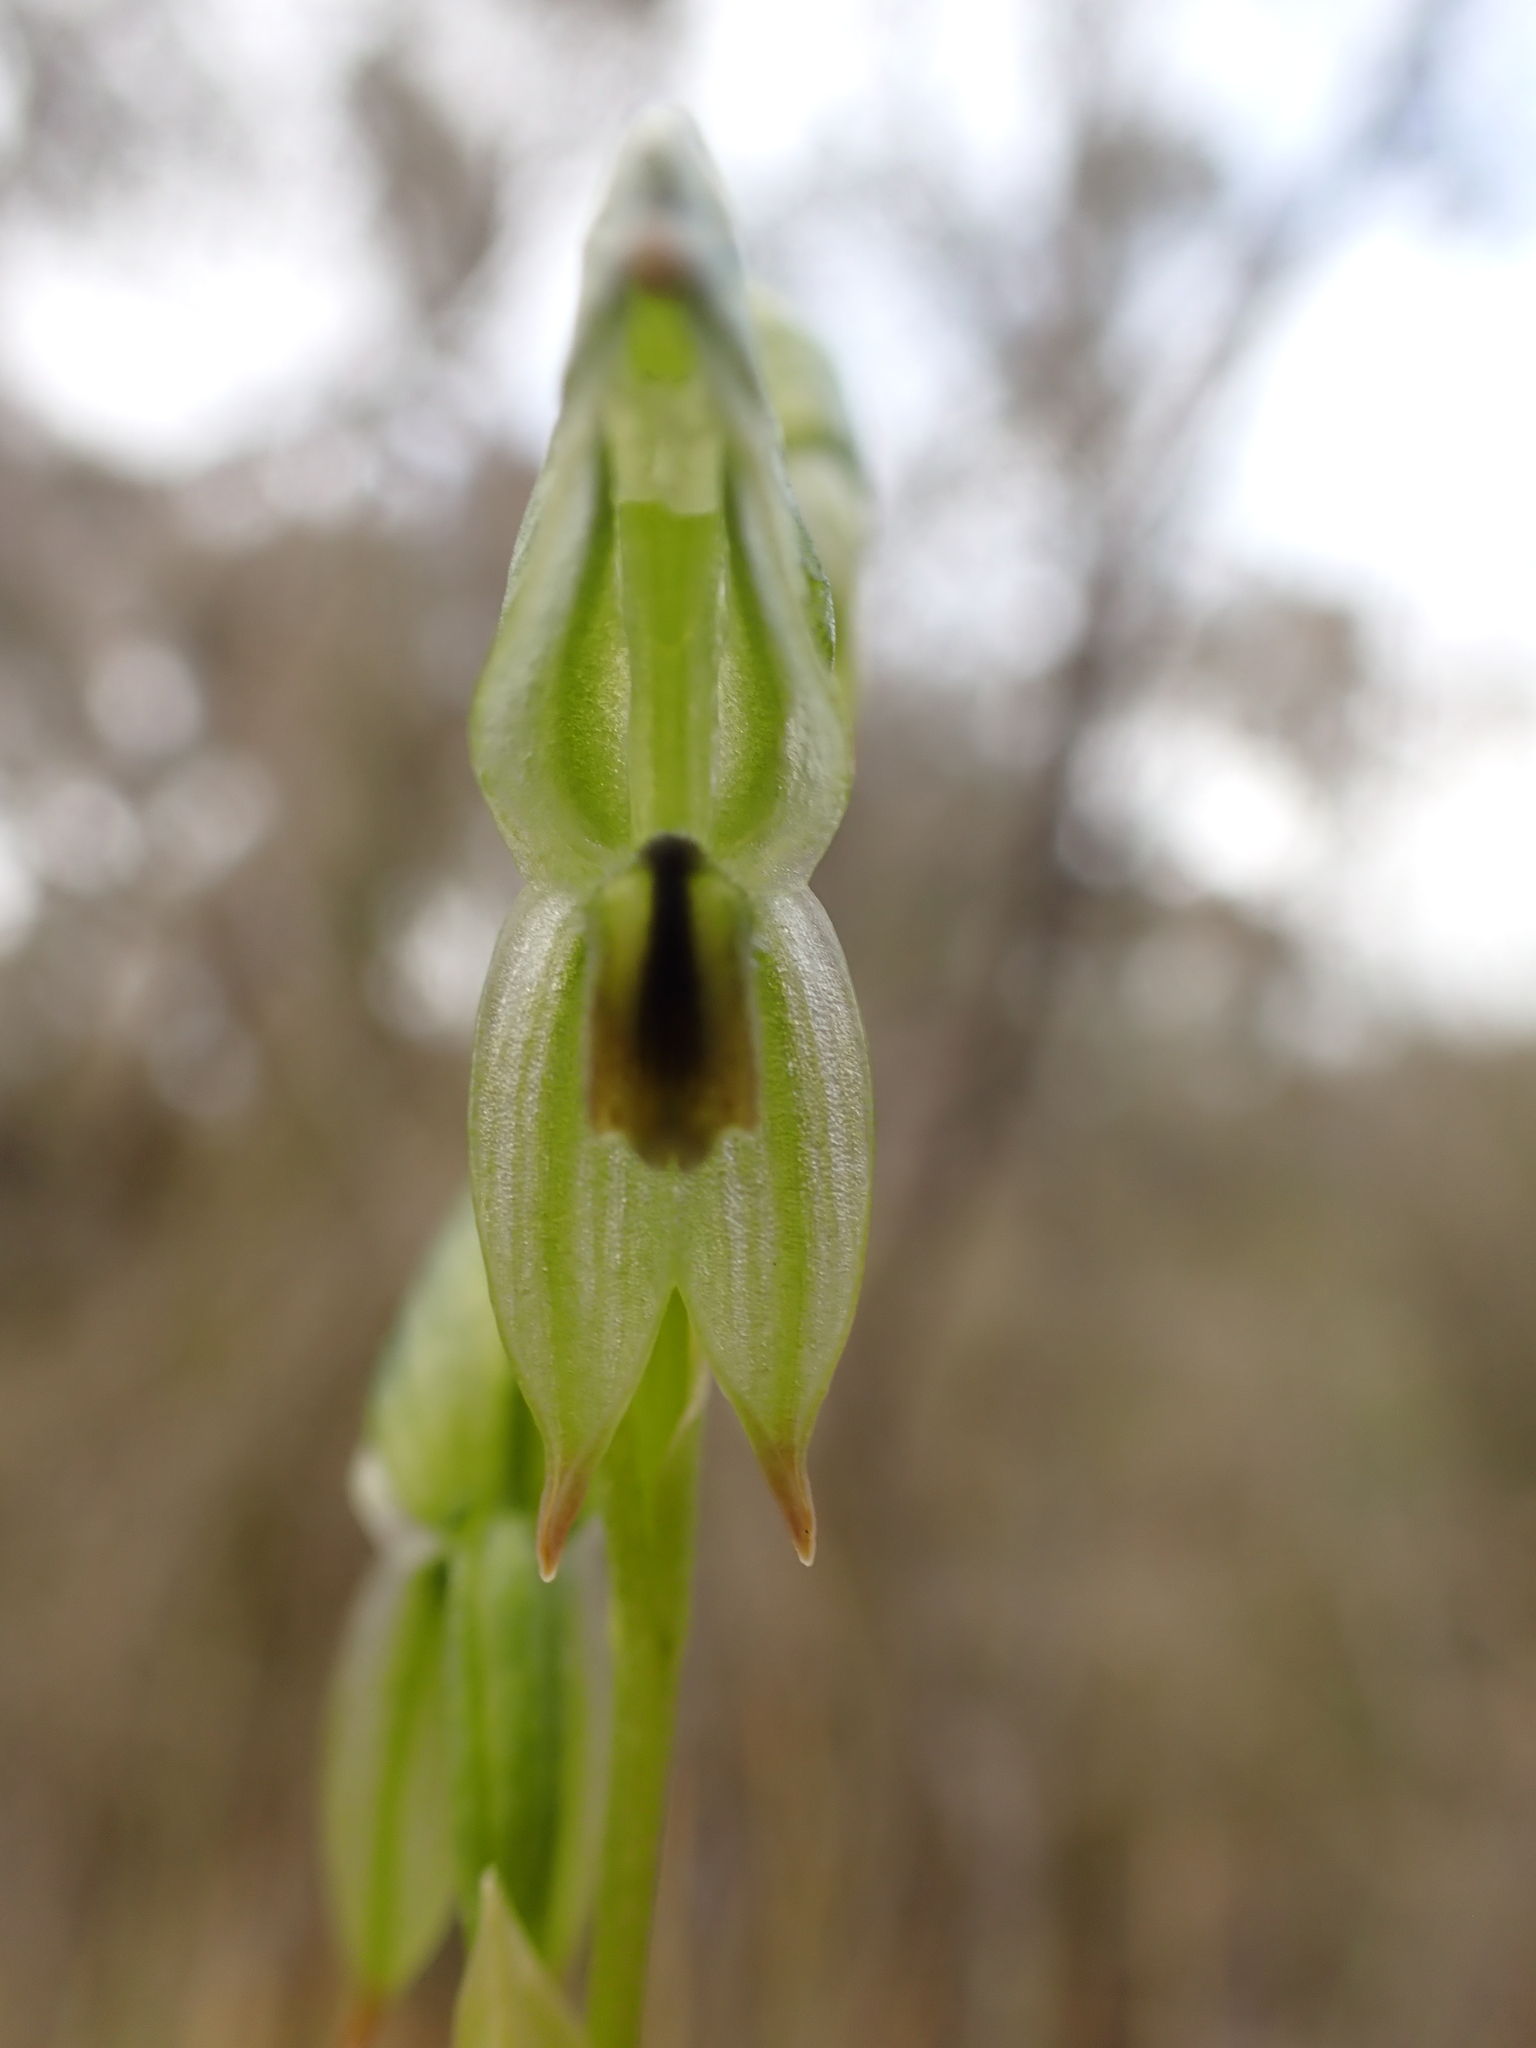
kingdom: Plantae
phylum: Tracheophyta
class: Liliopsida
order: Asparagales
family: Orchidaceae
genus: Pterostylis
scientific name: Pterostylis melagramma
